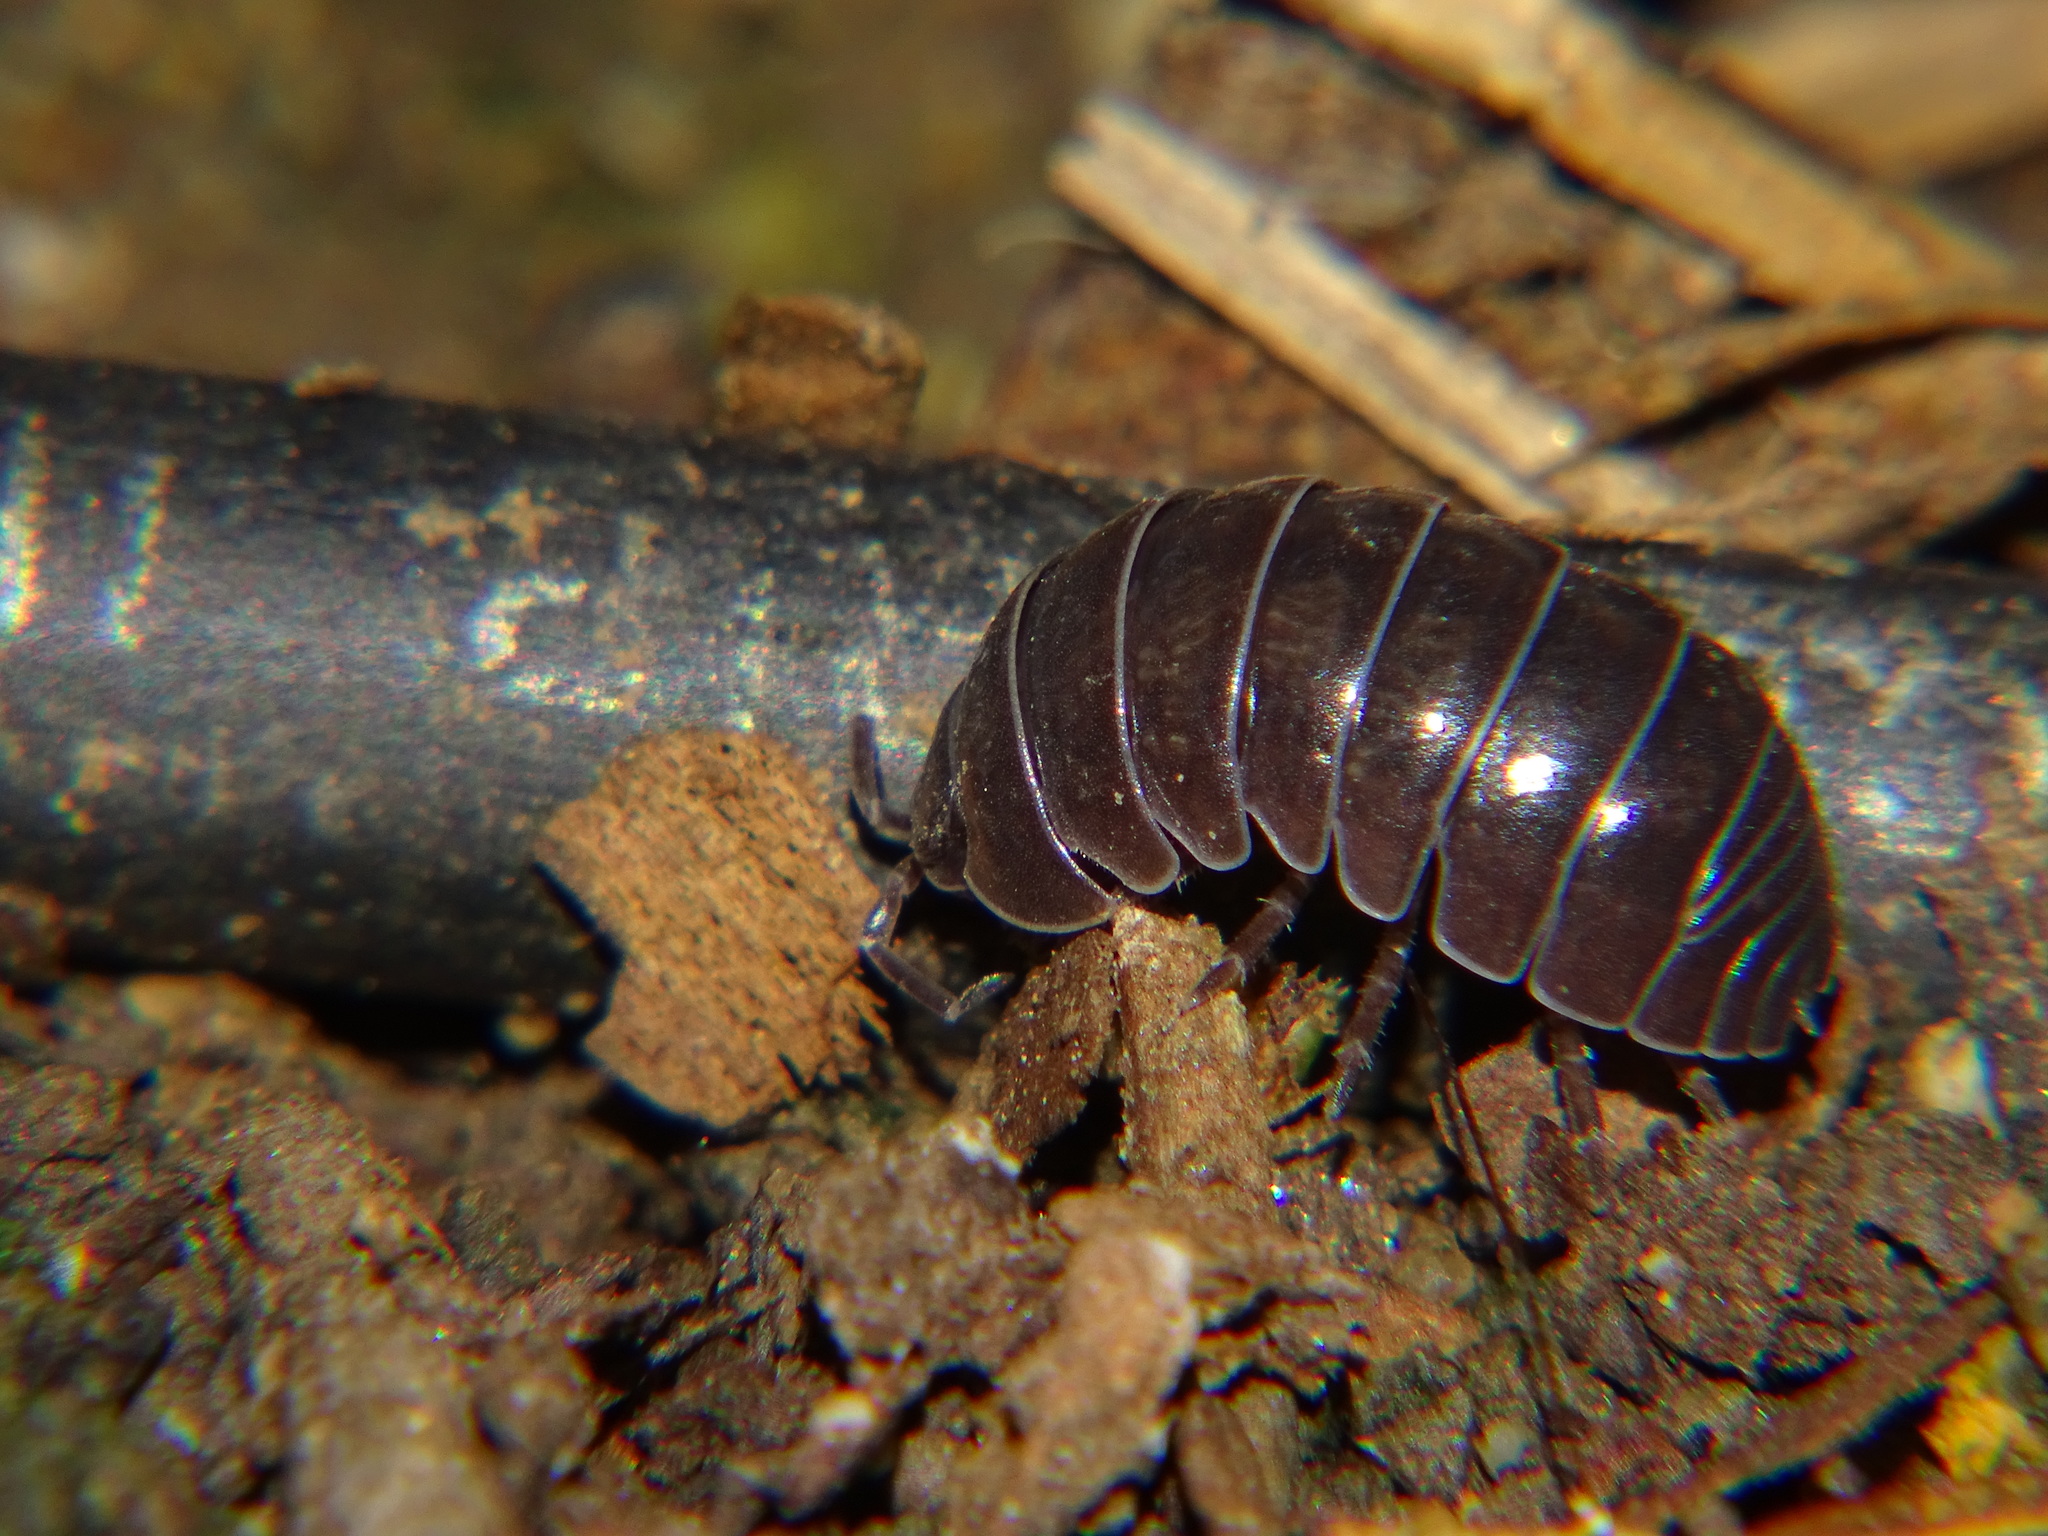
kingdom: Animalia
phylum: Arthropoda
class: Malacostraca
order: Isopoda
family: Armadillidiidae
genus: Armadillidium
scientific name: Armadillidium vulgare
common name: Common pill woodlouse
